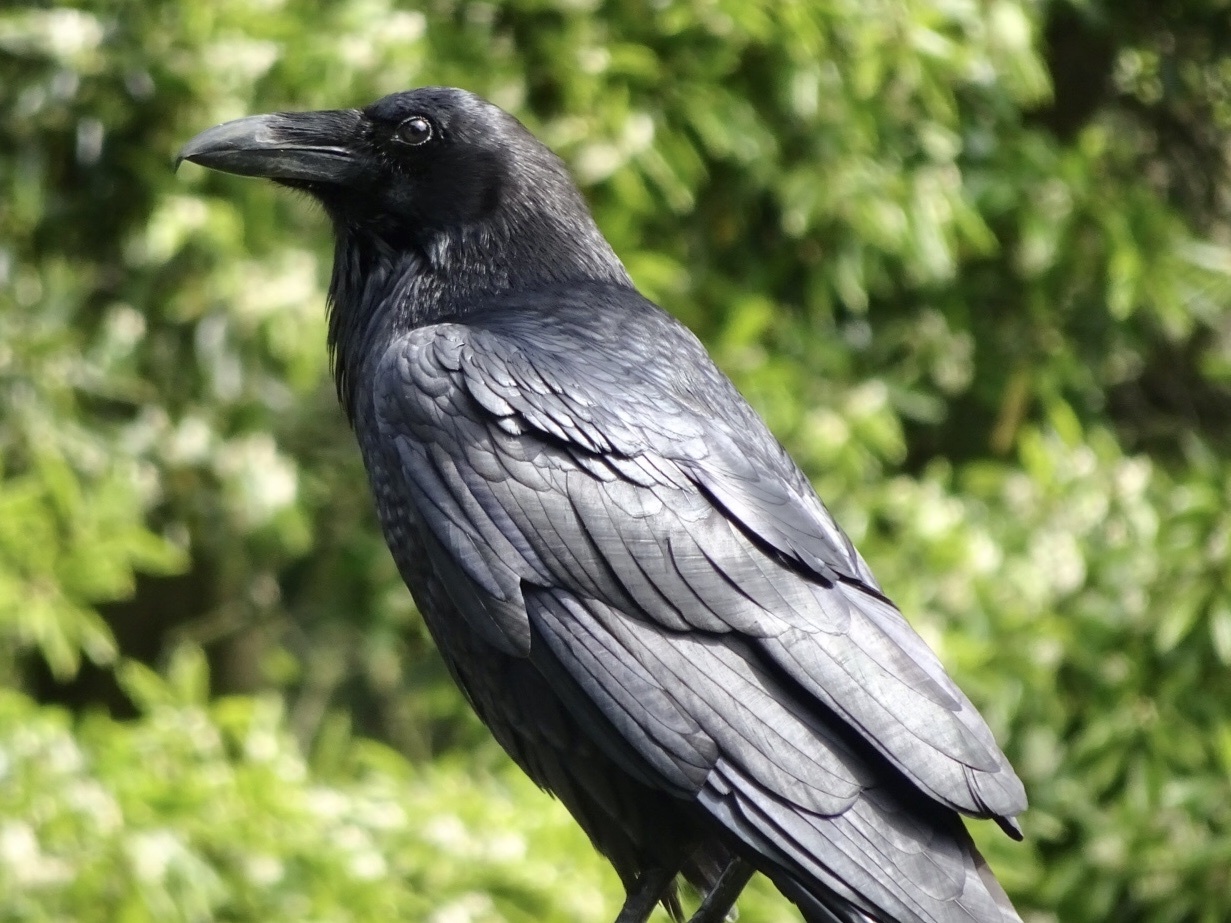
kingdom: Animalia
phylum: Chordata
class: Aves
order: Passeriformes
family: Corvidae
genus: Corvus
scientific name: Corvus corax
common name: Common raven
